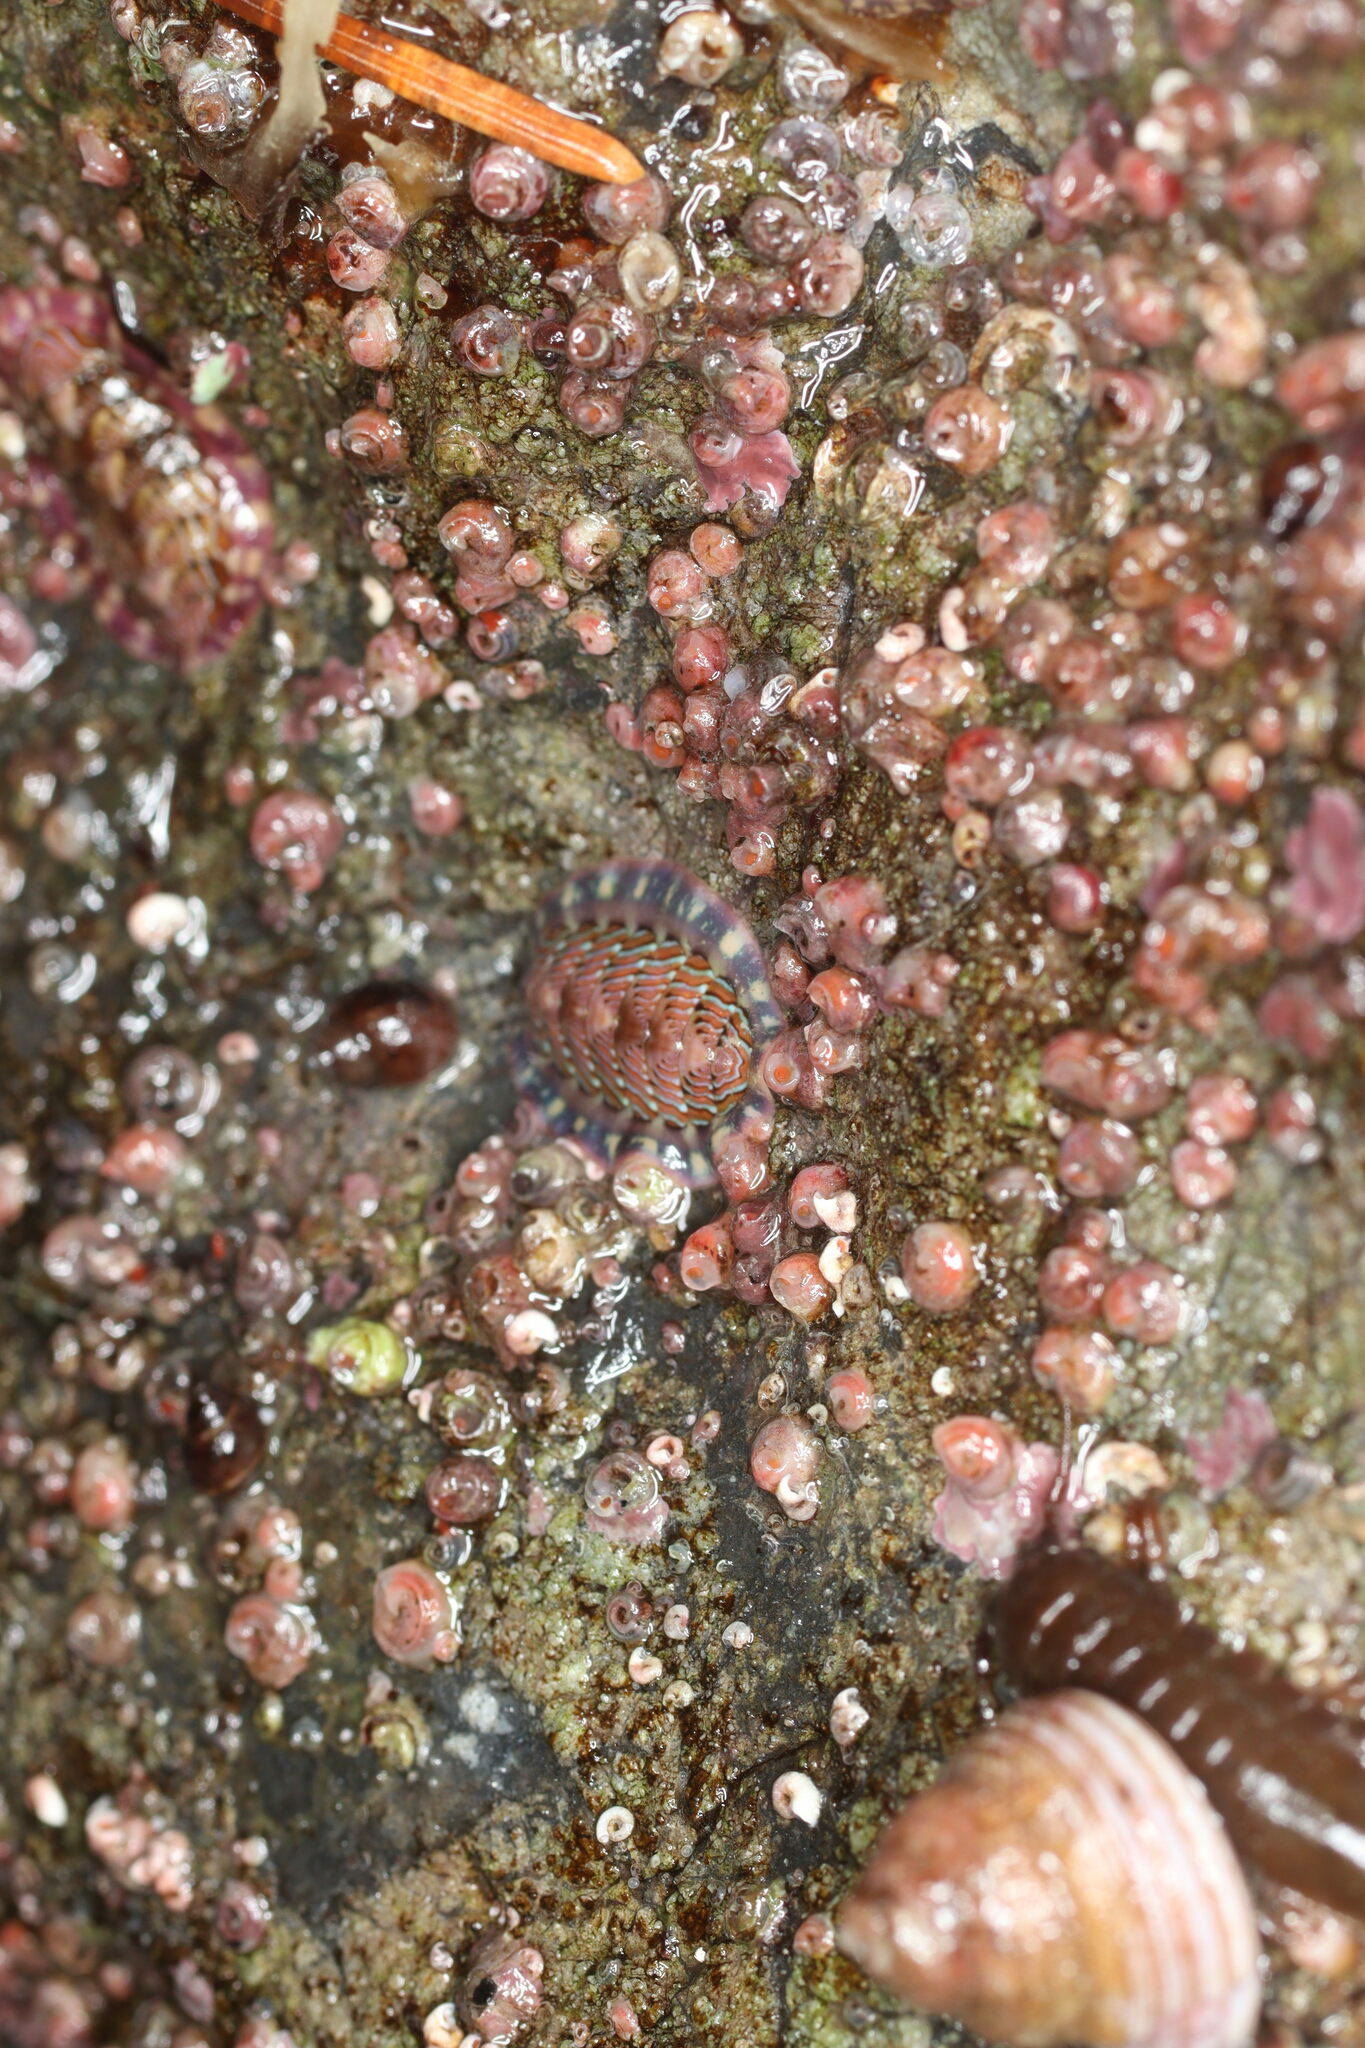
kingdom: Animalia
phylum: Mollusca
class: Polyplacophora
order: Chitonida
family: Tonicellidae
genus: Tonicella
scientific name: Tonicella lineata
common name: Lined chiton
